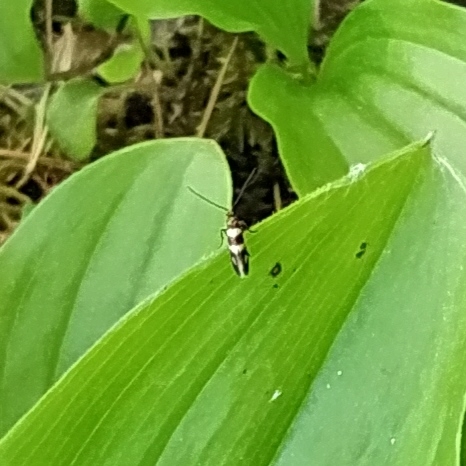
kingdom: Animalia
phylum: Arthropoda
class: Insecta
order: Lepidoptera
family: Micropterigidae
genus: Micropterix
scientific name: Micropterix aureatella
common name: Yellow-barred gold
